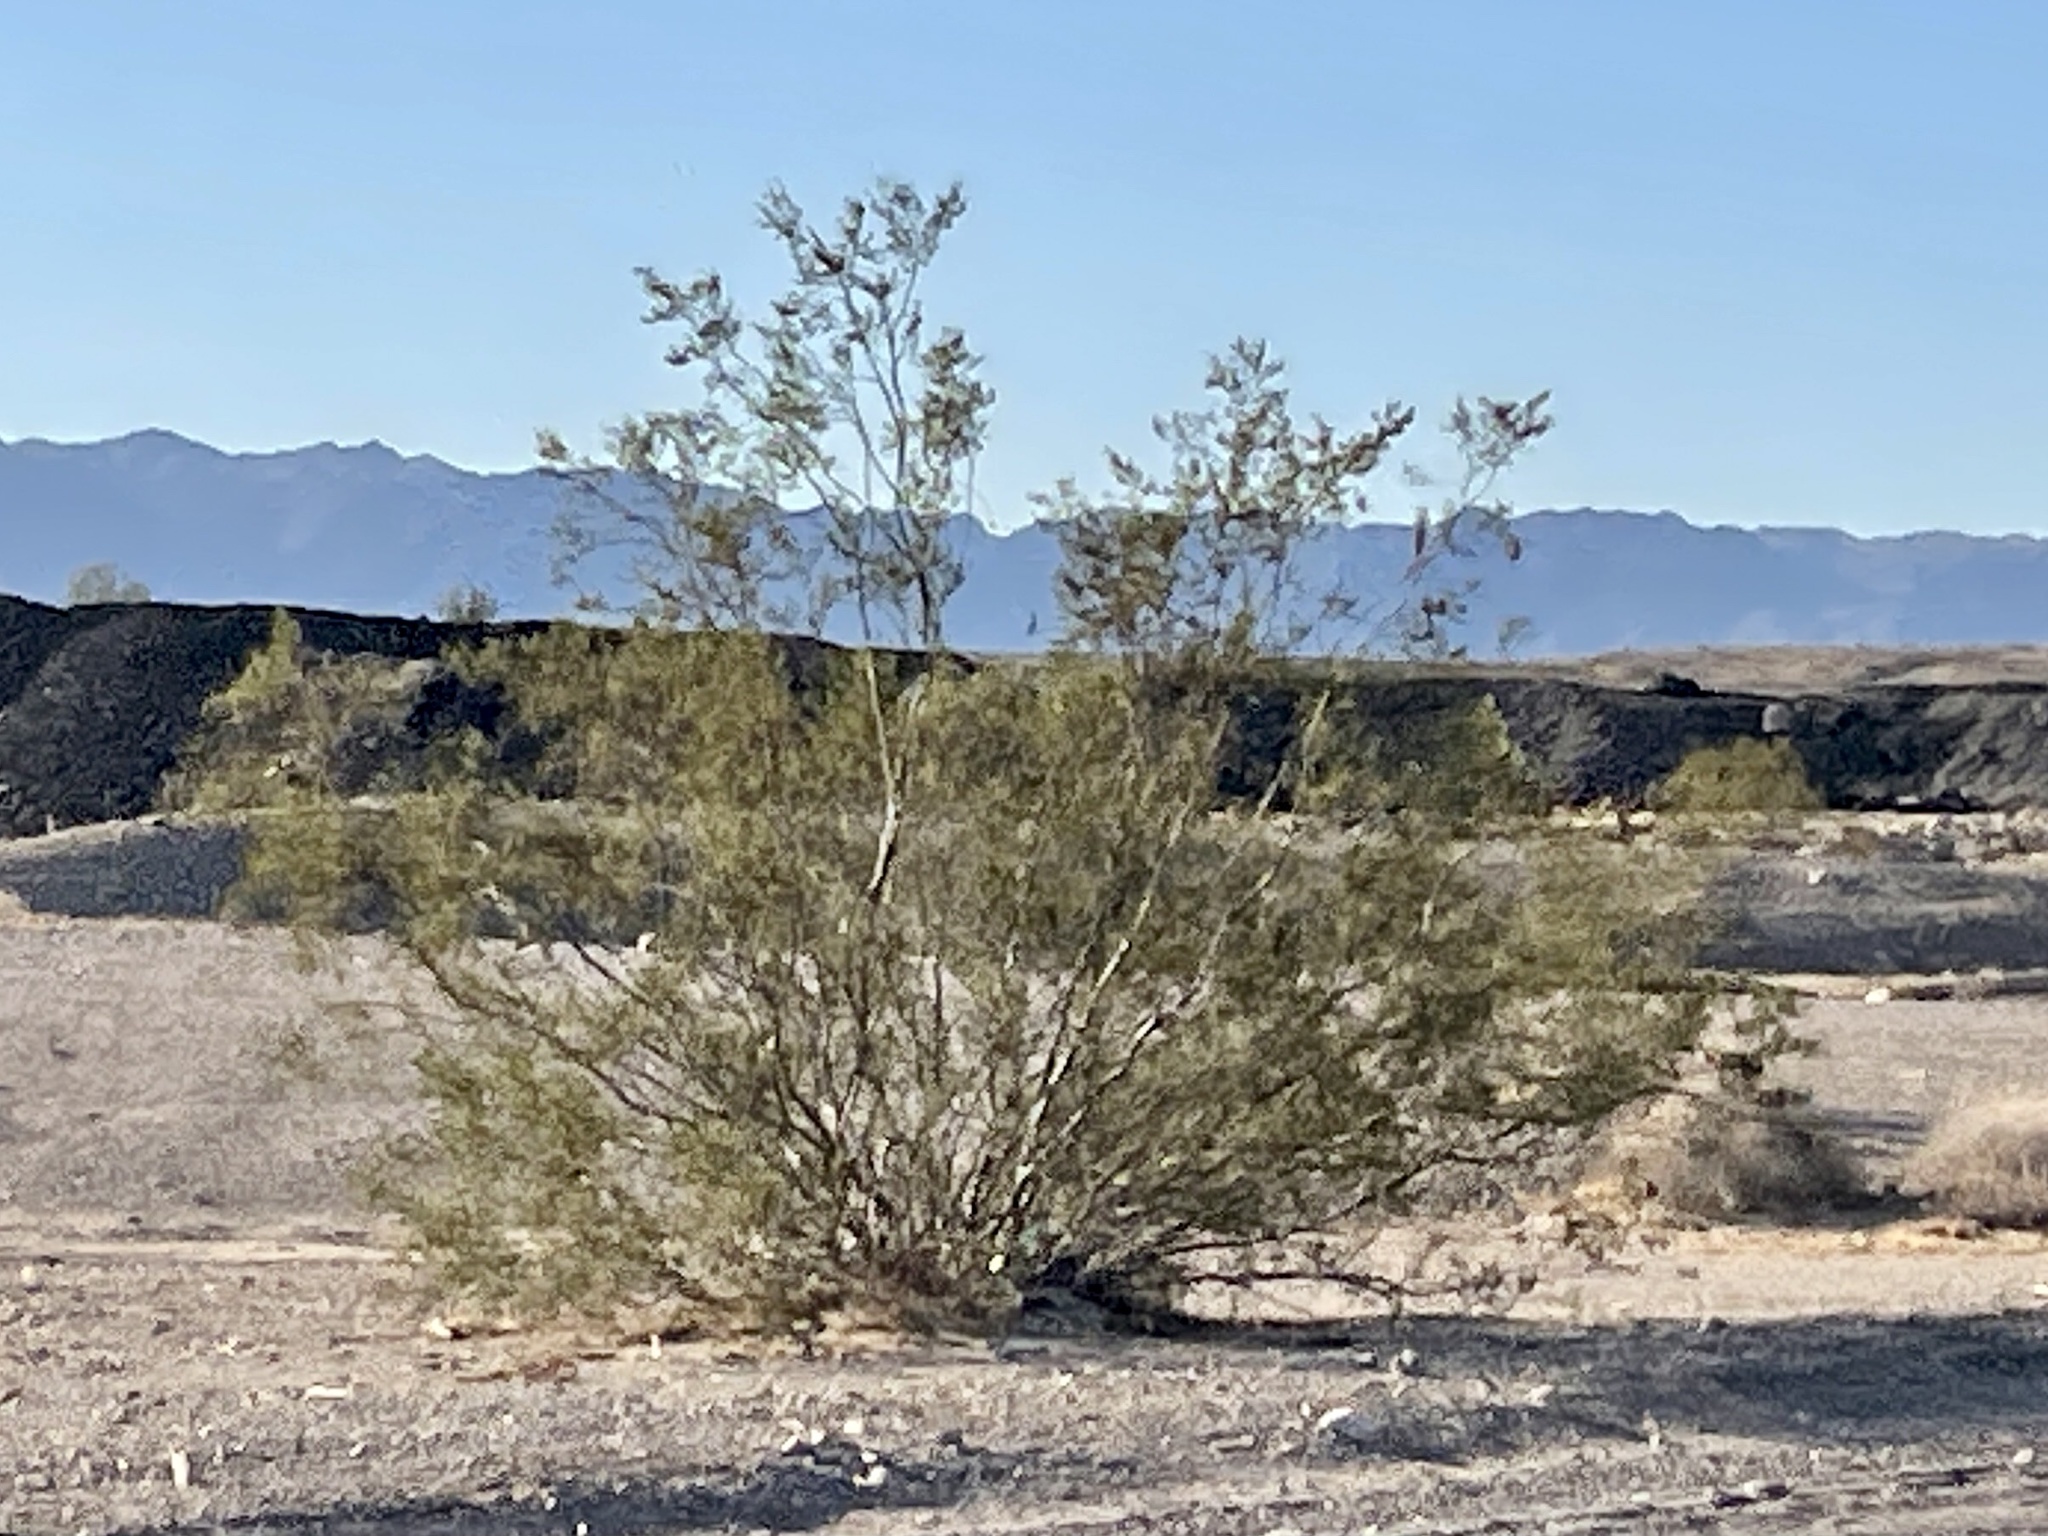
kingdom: Plantae
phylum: Tracheophyta
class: Magnoliopsida
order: Zygophyllales
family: Zygophyllaceae
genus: Larrea
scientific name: Larrea tridentata
